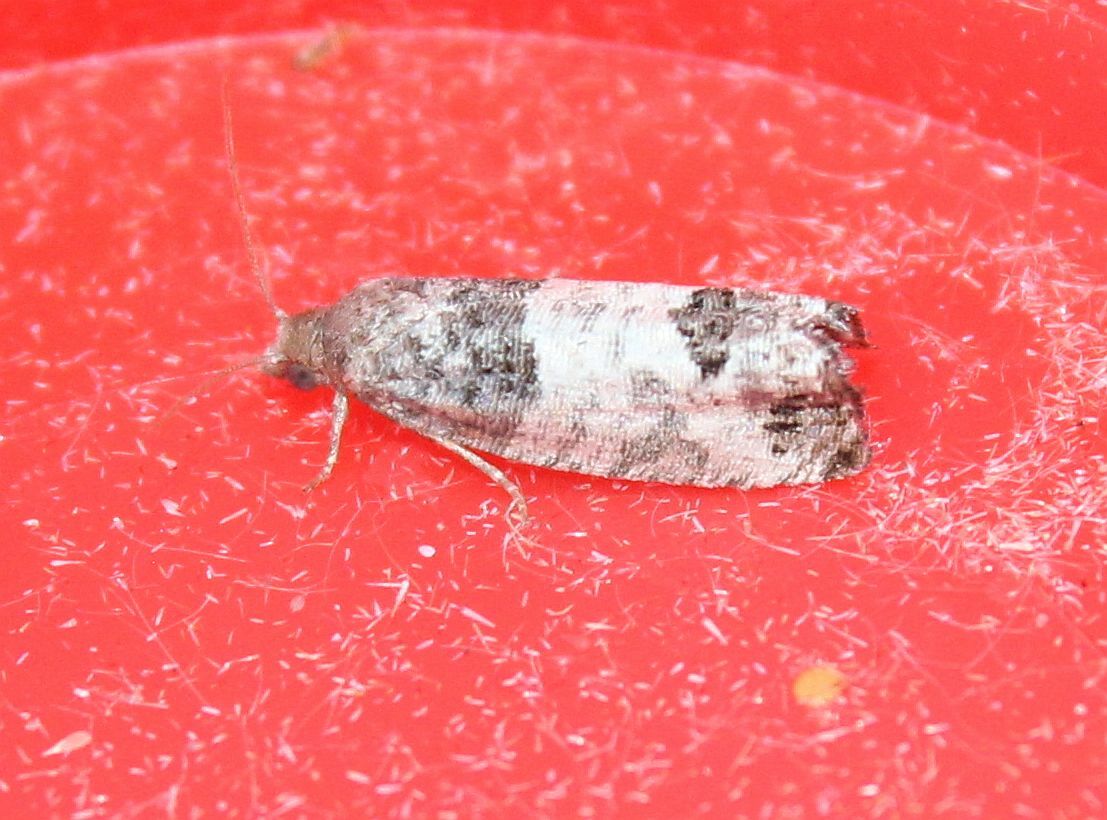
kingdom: Animalia
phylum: Arthropoda
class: Insecta
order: Lepidoptera
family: Tortricidae
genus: Spilonota
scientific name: Spilonota ocellana
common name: Bud moth
